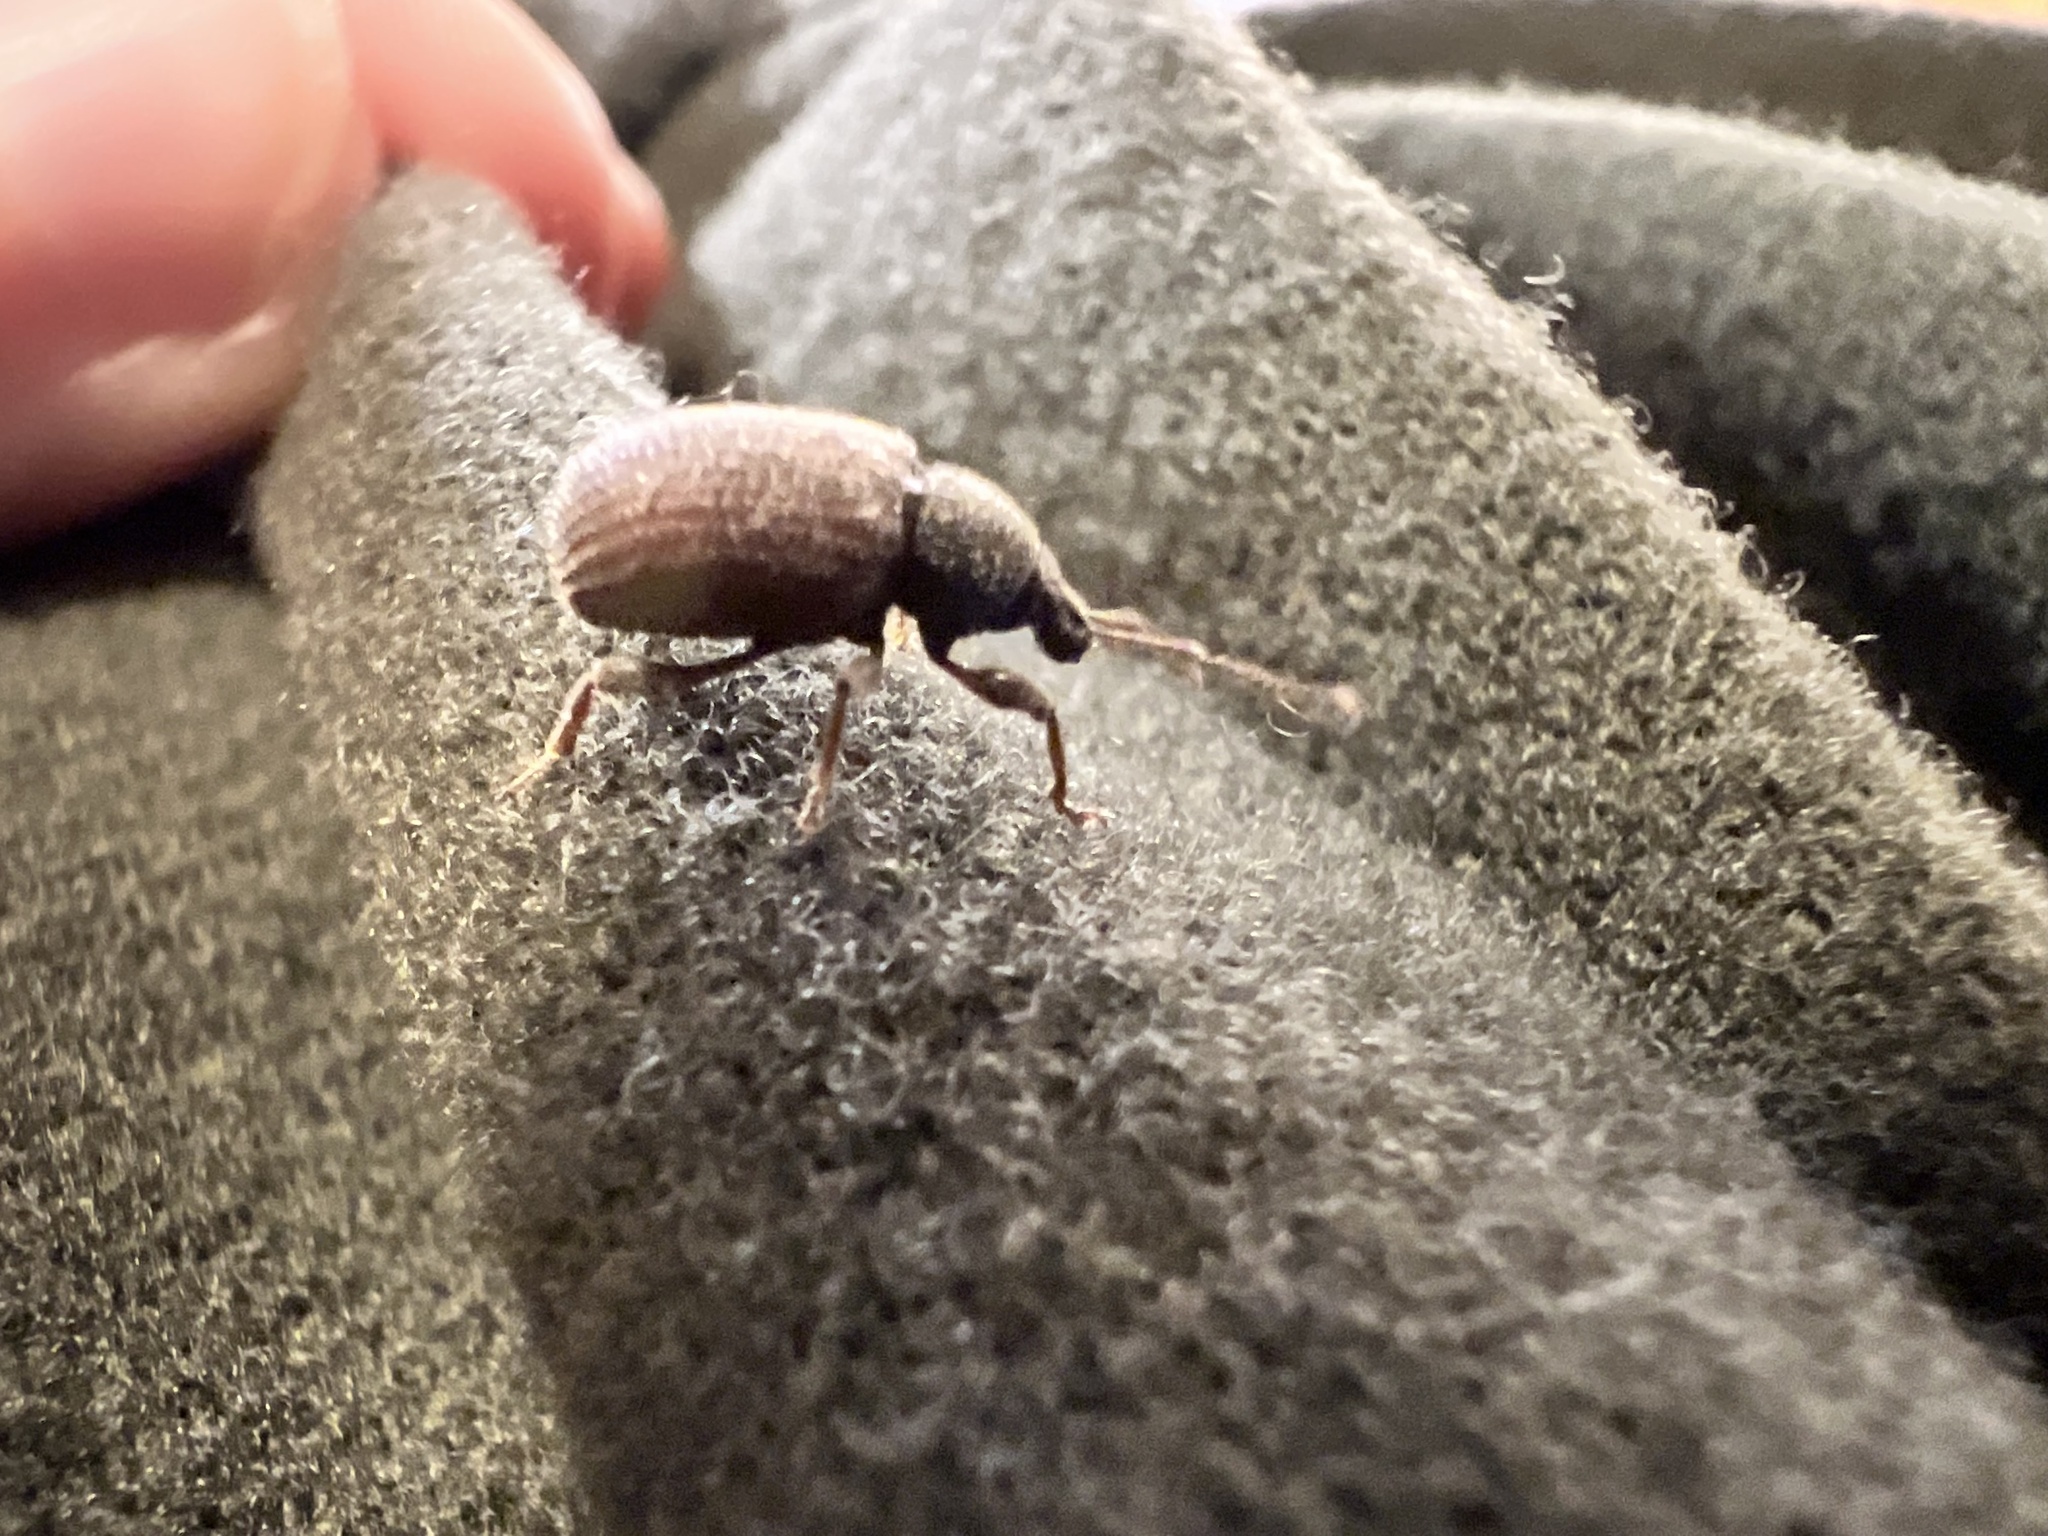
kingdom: Animalia
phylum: Arthropoda
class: Insecta
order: Coleoptera
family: Curculionidae
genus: Otiorhynchus
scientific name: Otiorhynchus rugosostriatus
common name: Weevil
